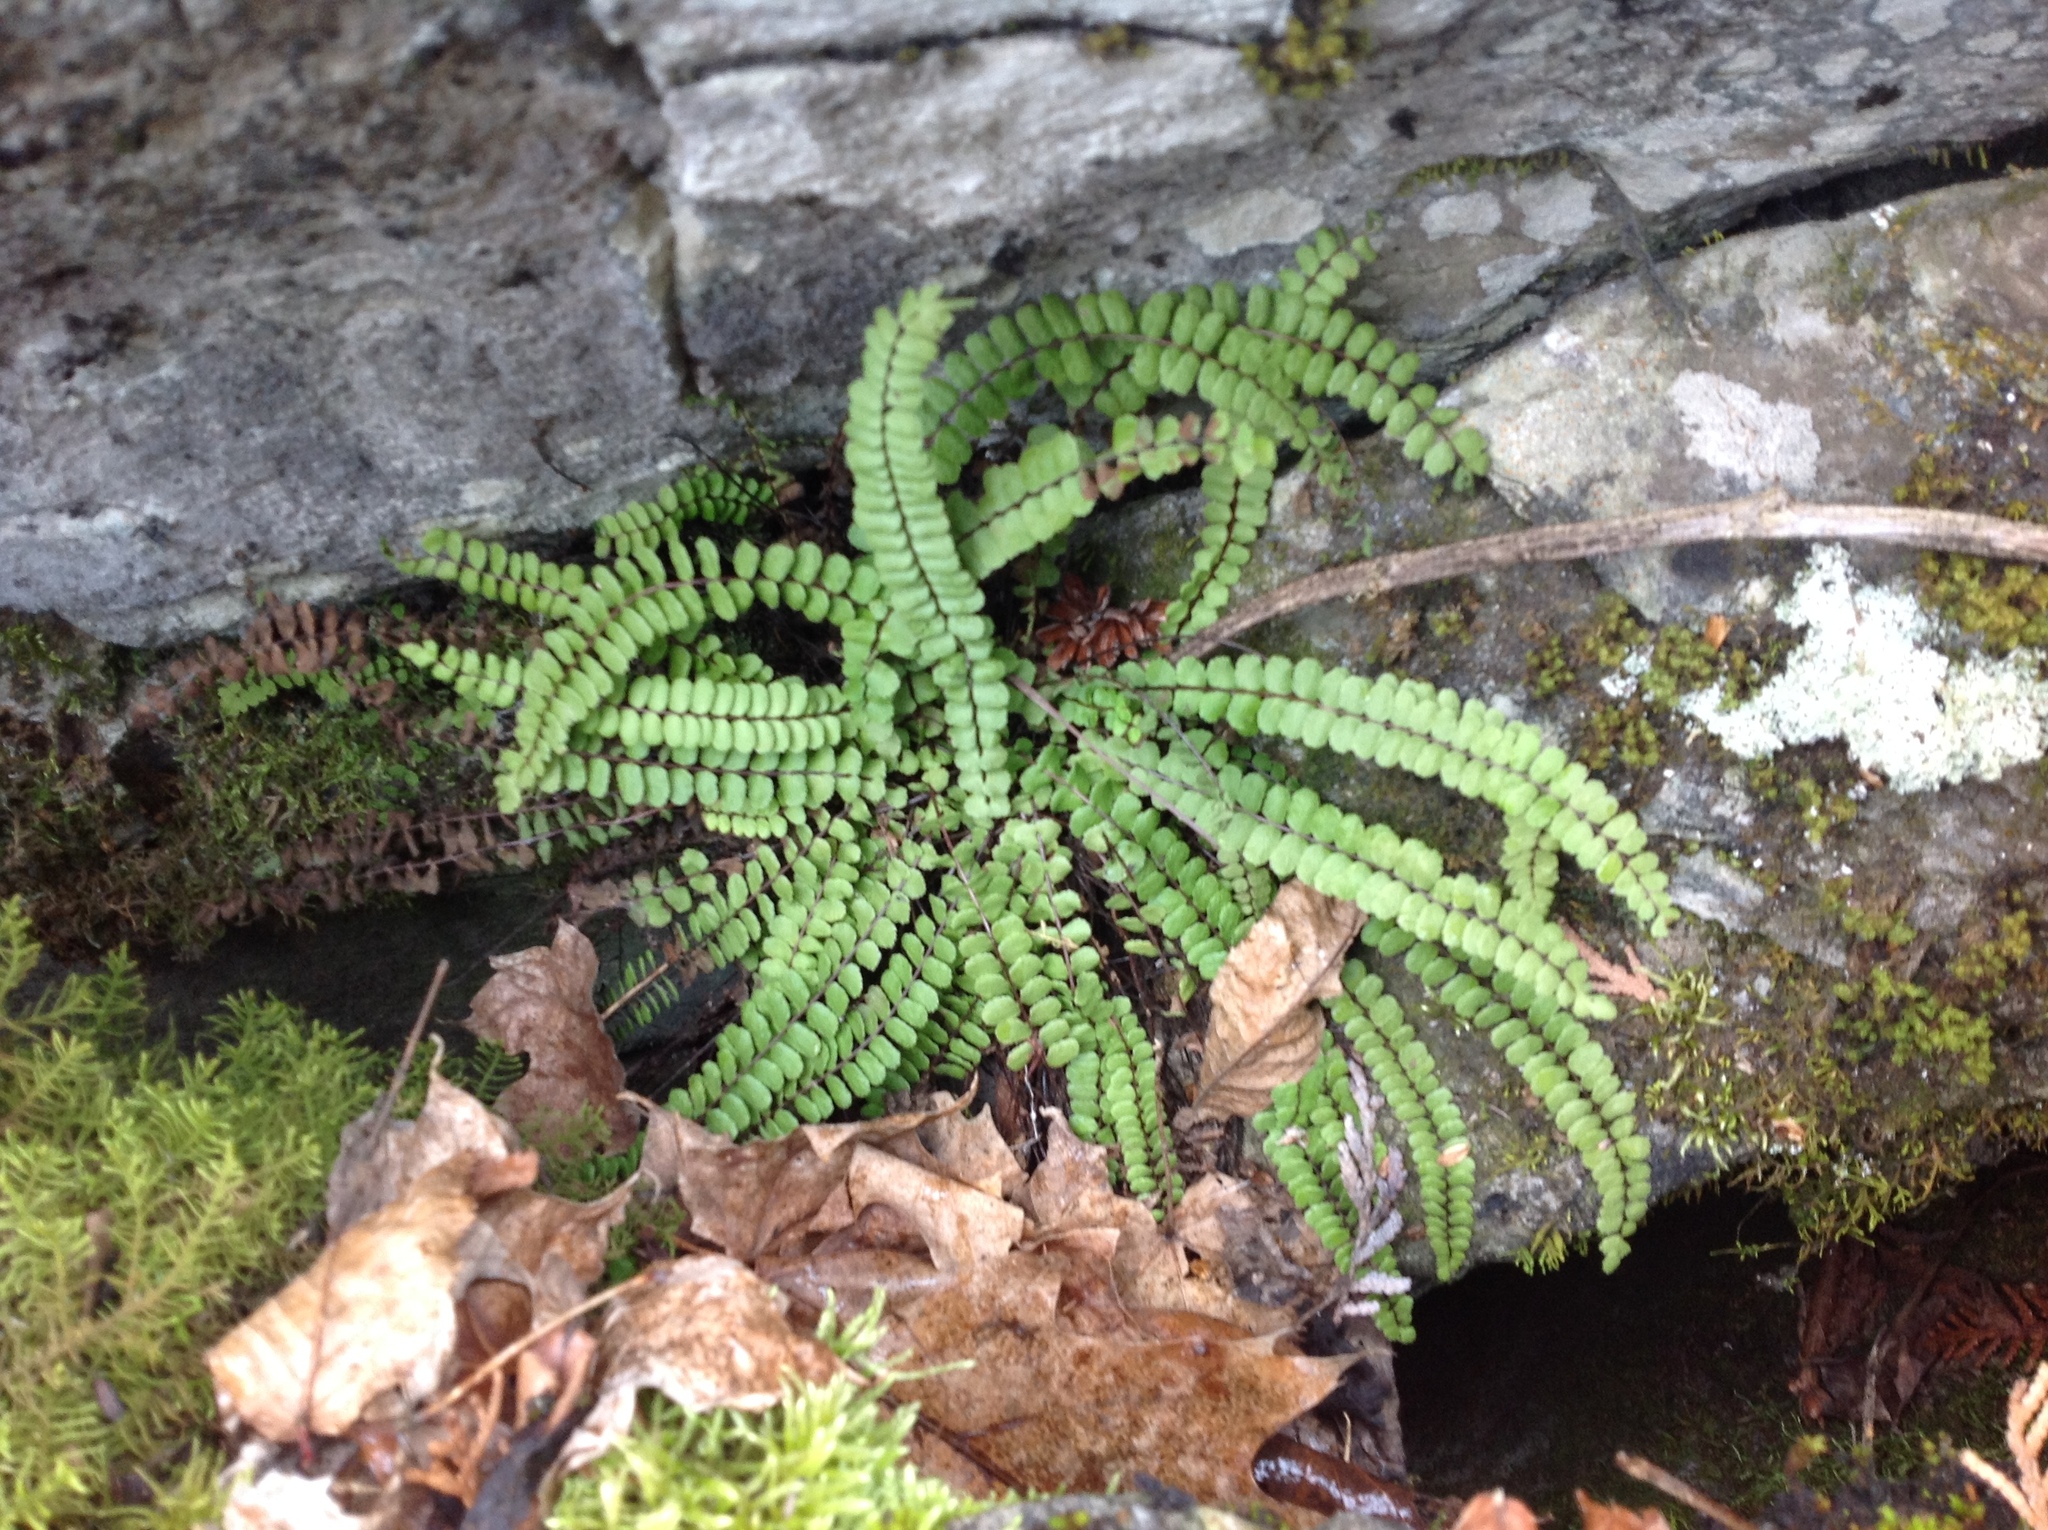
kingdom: Plantae
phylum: Tracheophyta
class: Polypodiopsida
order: Polypodiales
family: Aspleniaceae
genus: Asplenium
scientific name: Asplenium trichomanes
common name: Maidenhair spleenwort
